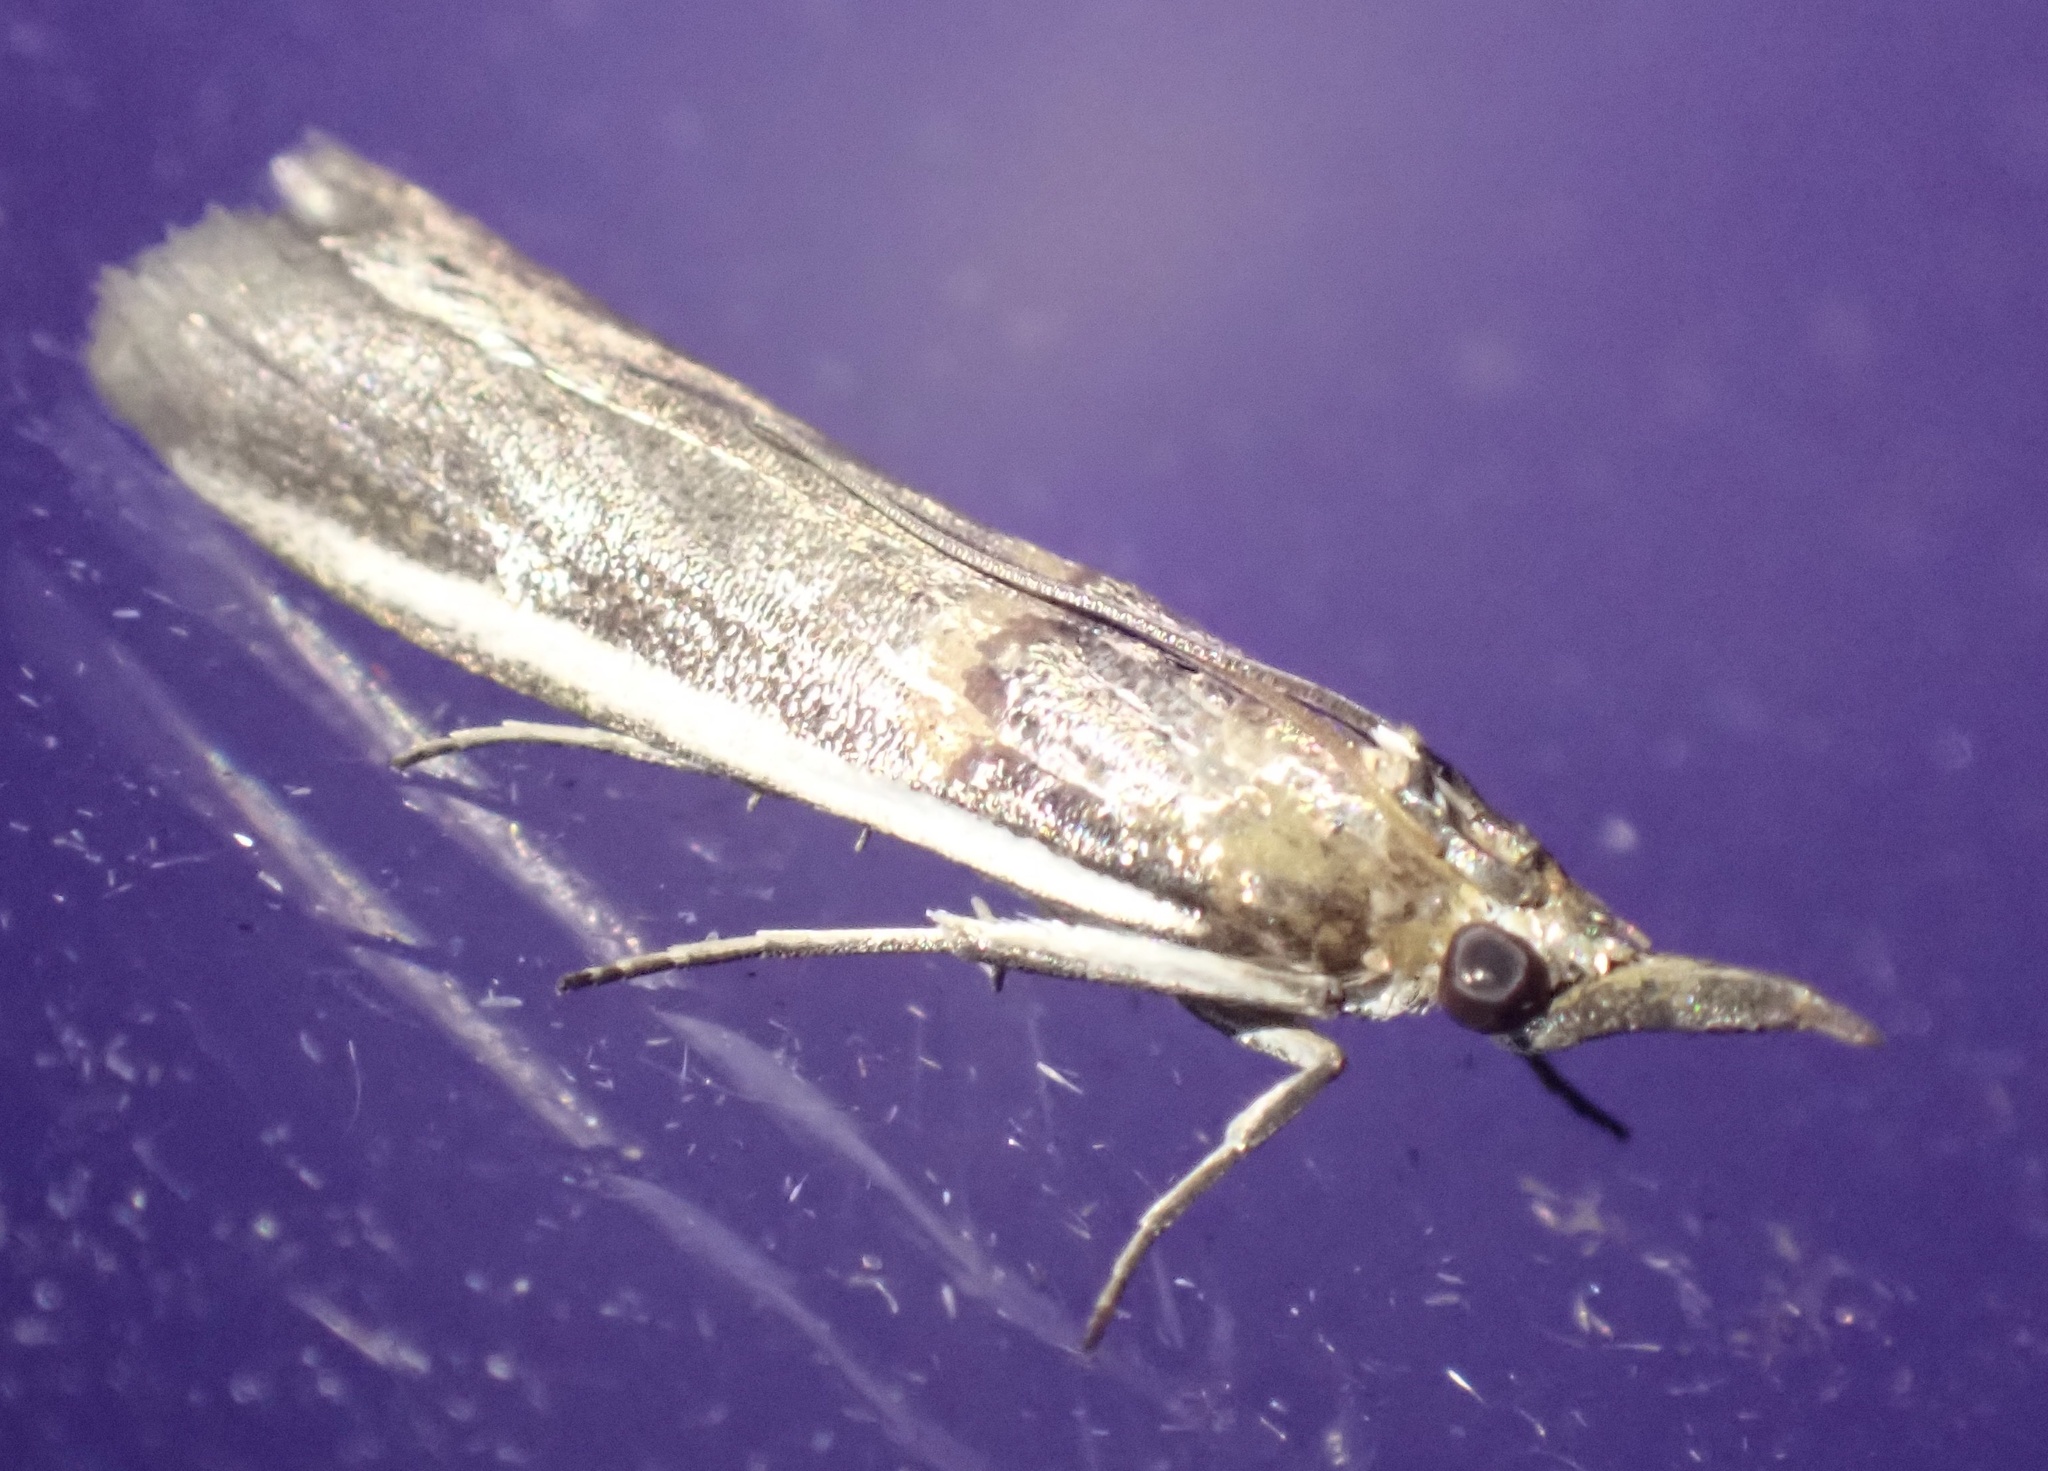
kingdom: Animalia
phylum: Arthropoda
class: Insecta
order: Lepidoptera
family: Pyralidae
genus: Etiella
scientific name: Etiella zinckenella
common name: Gold-banded etiella moth
